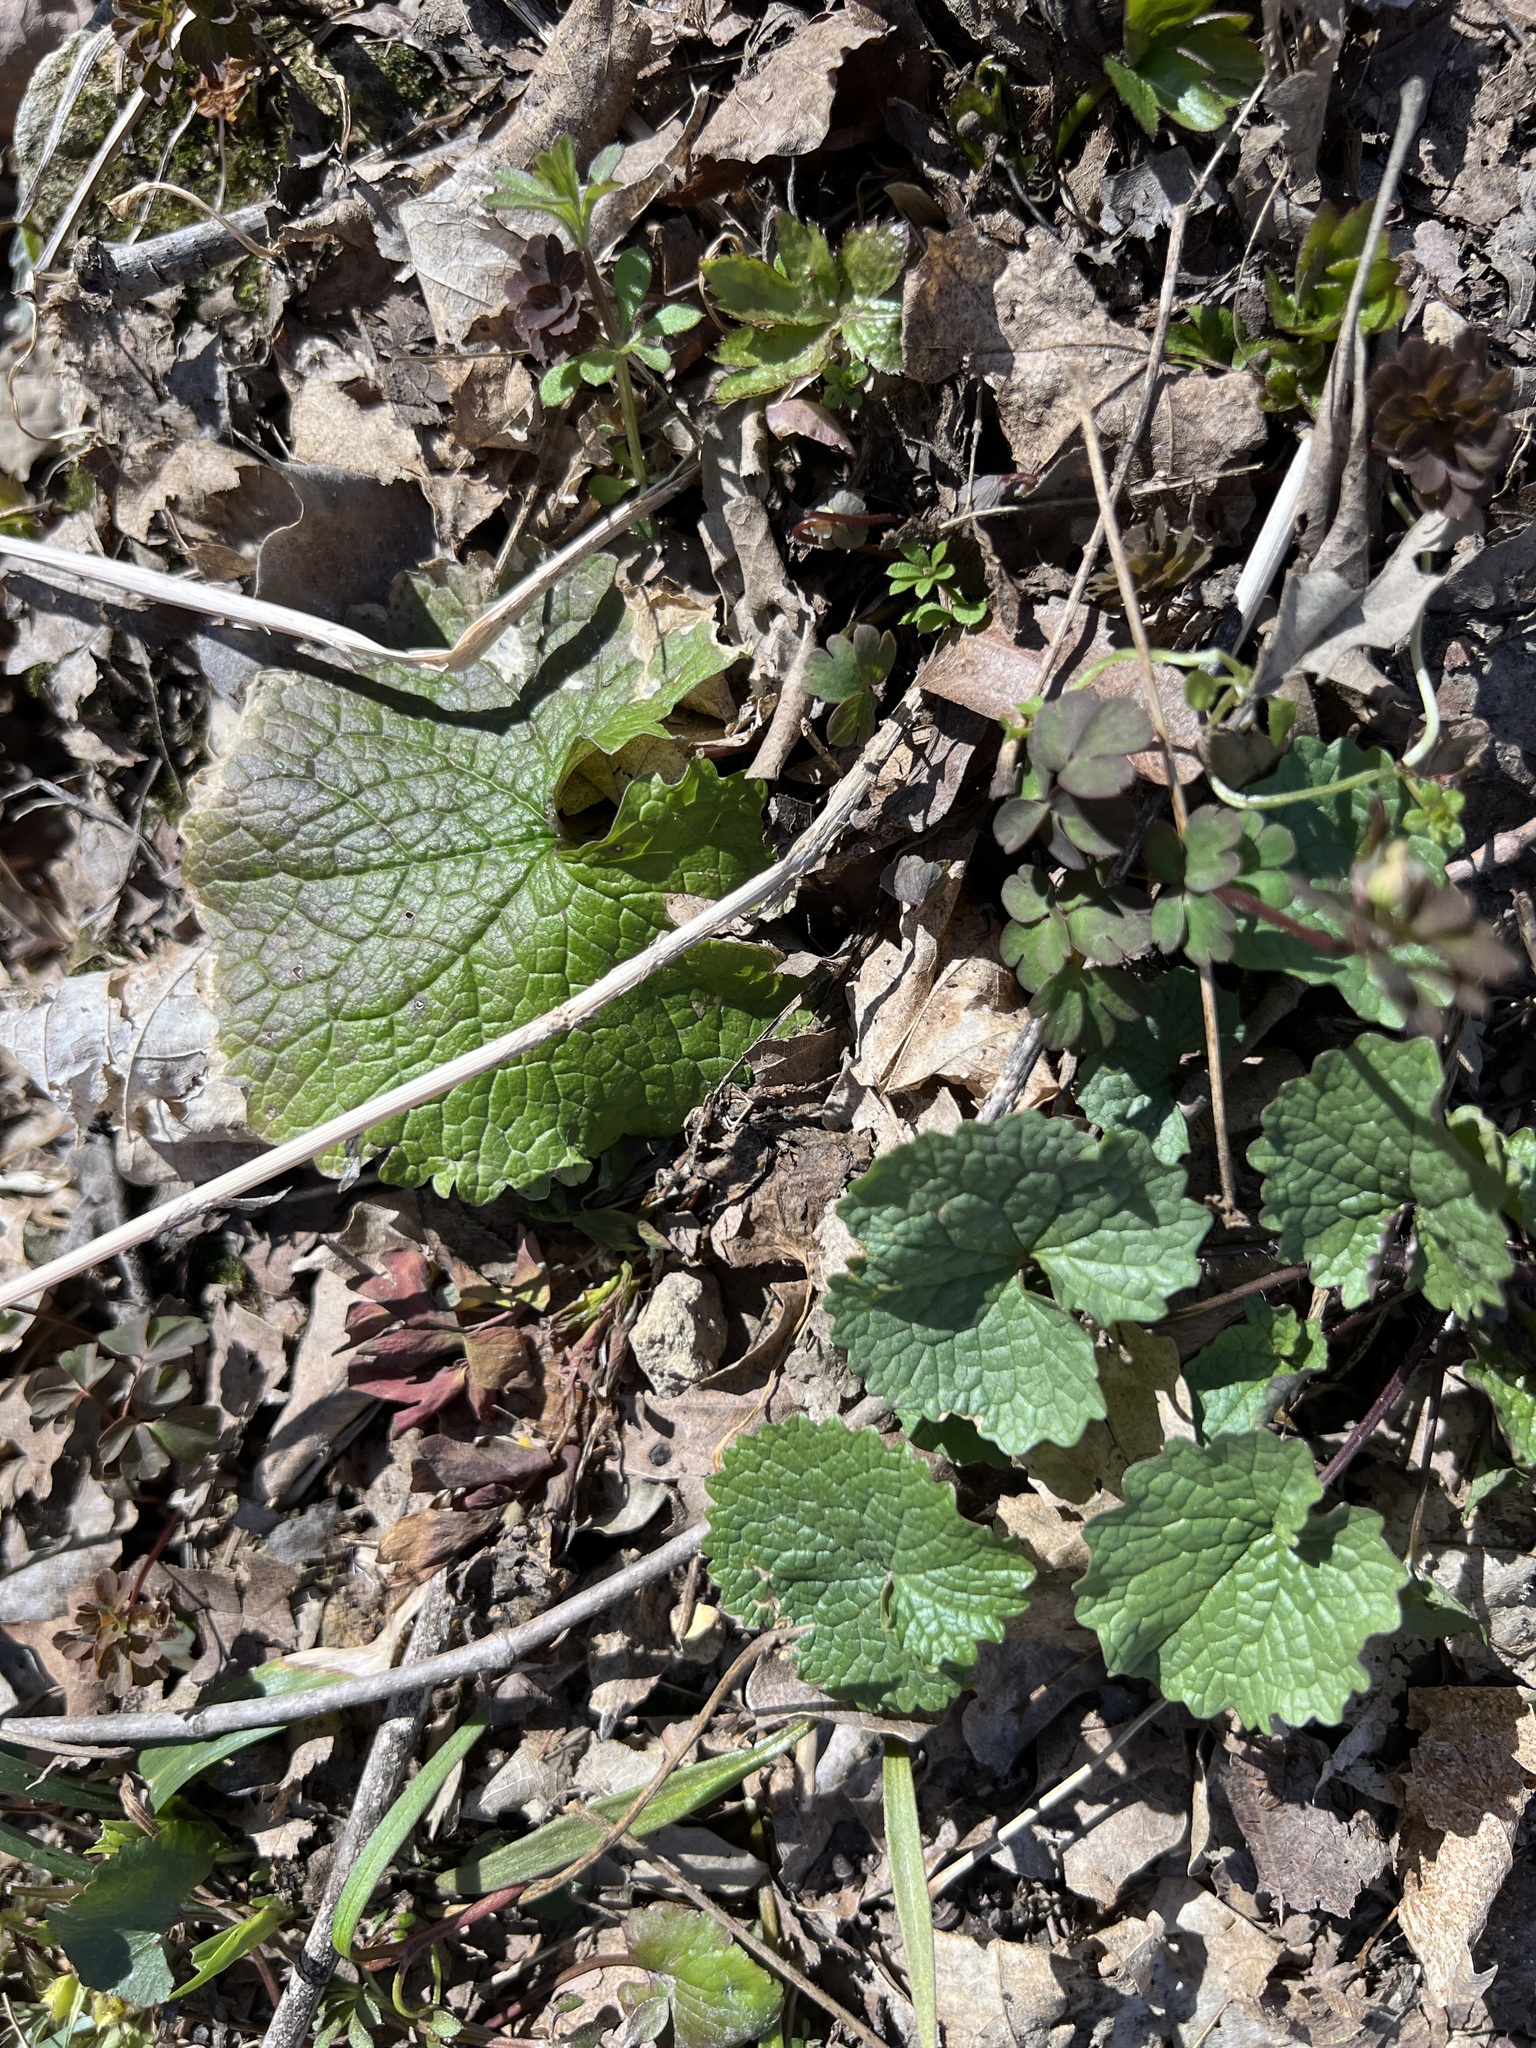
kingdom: Plantae
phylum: Tracheophyta
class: Magnoliopsida
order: Brassicales
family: Brassicaceae
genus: Alliaria
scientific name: Alliaria petiolata
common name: Garlic mustard
